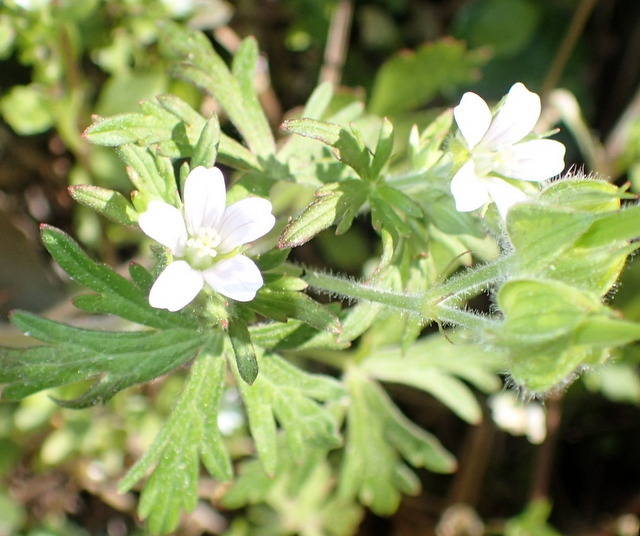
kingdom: Plantae
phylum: Tracheophyta
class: Magnoliopsida
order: Geraniales
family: Geraniaceae
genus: Geranium
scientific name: Geranium carolinianum
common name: Carolina crane's-bill
